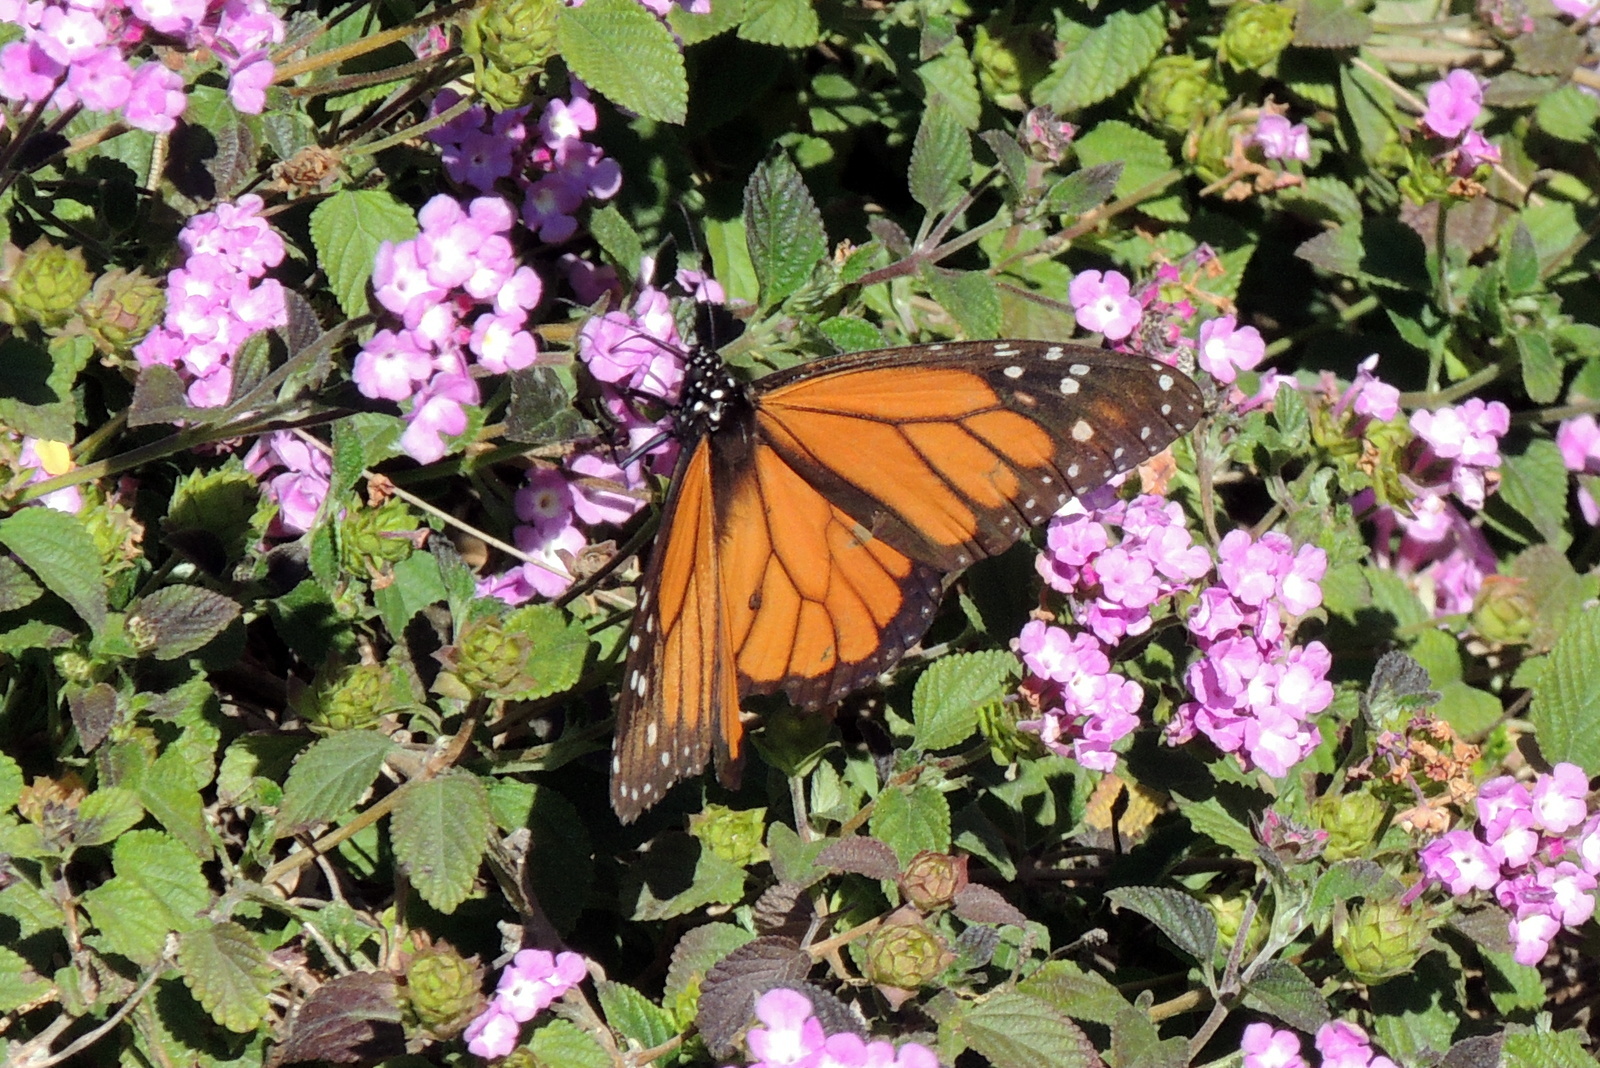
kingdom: Animalia
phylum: Arthropoda
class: Insecta
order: Lepidoptera
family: Nymphalidae
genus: Danaus
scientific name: Danaus plexippus
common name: Monarch
